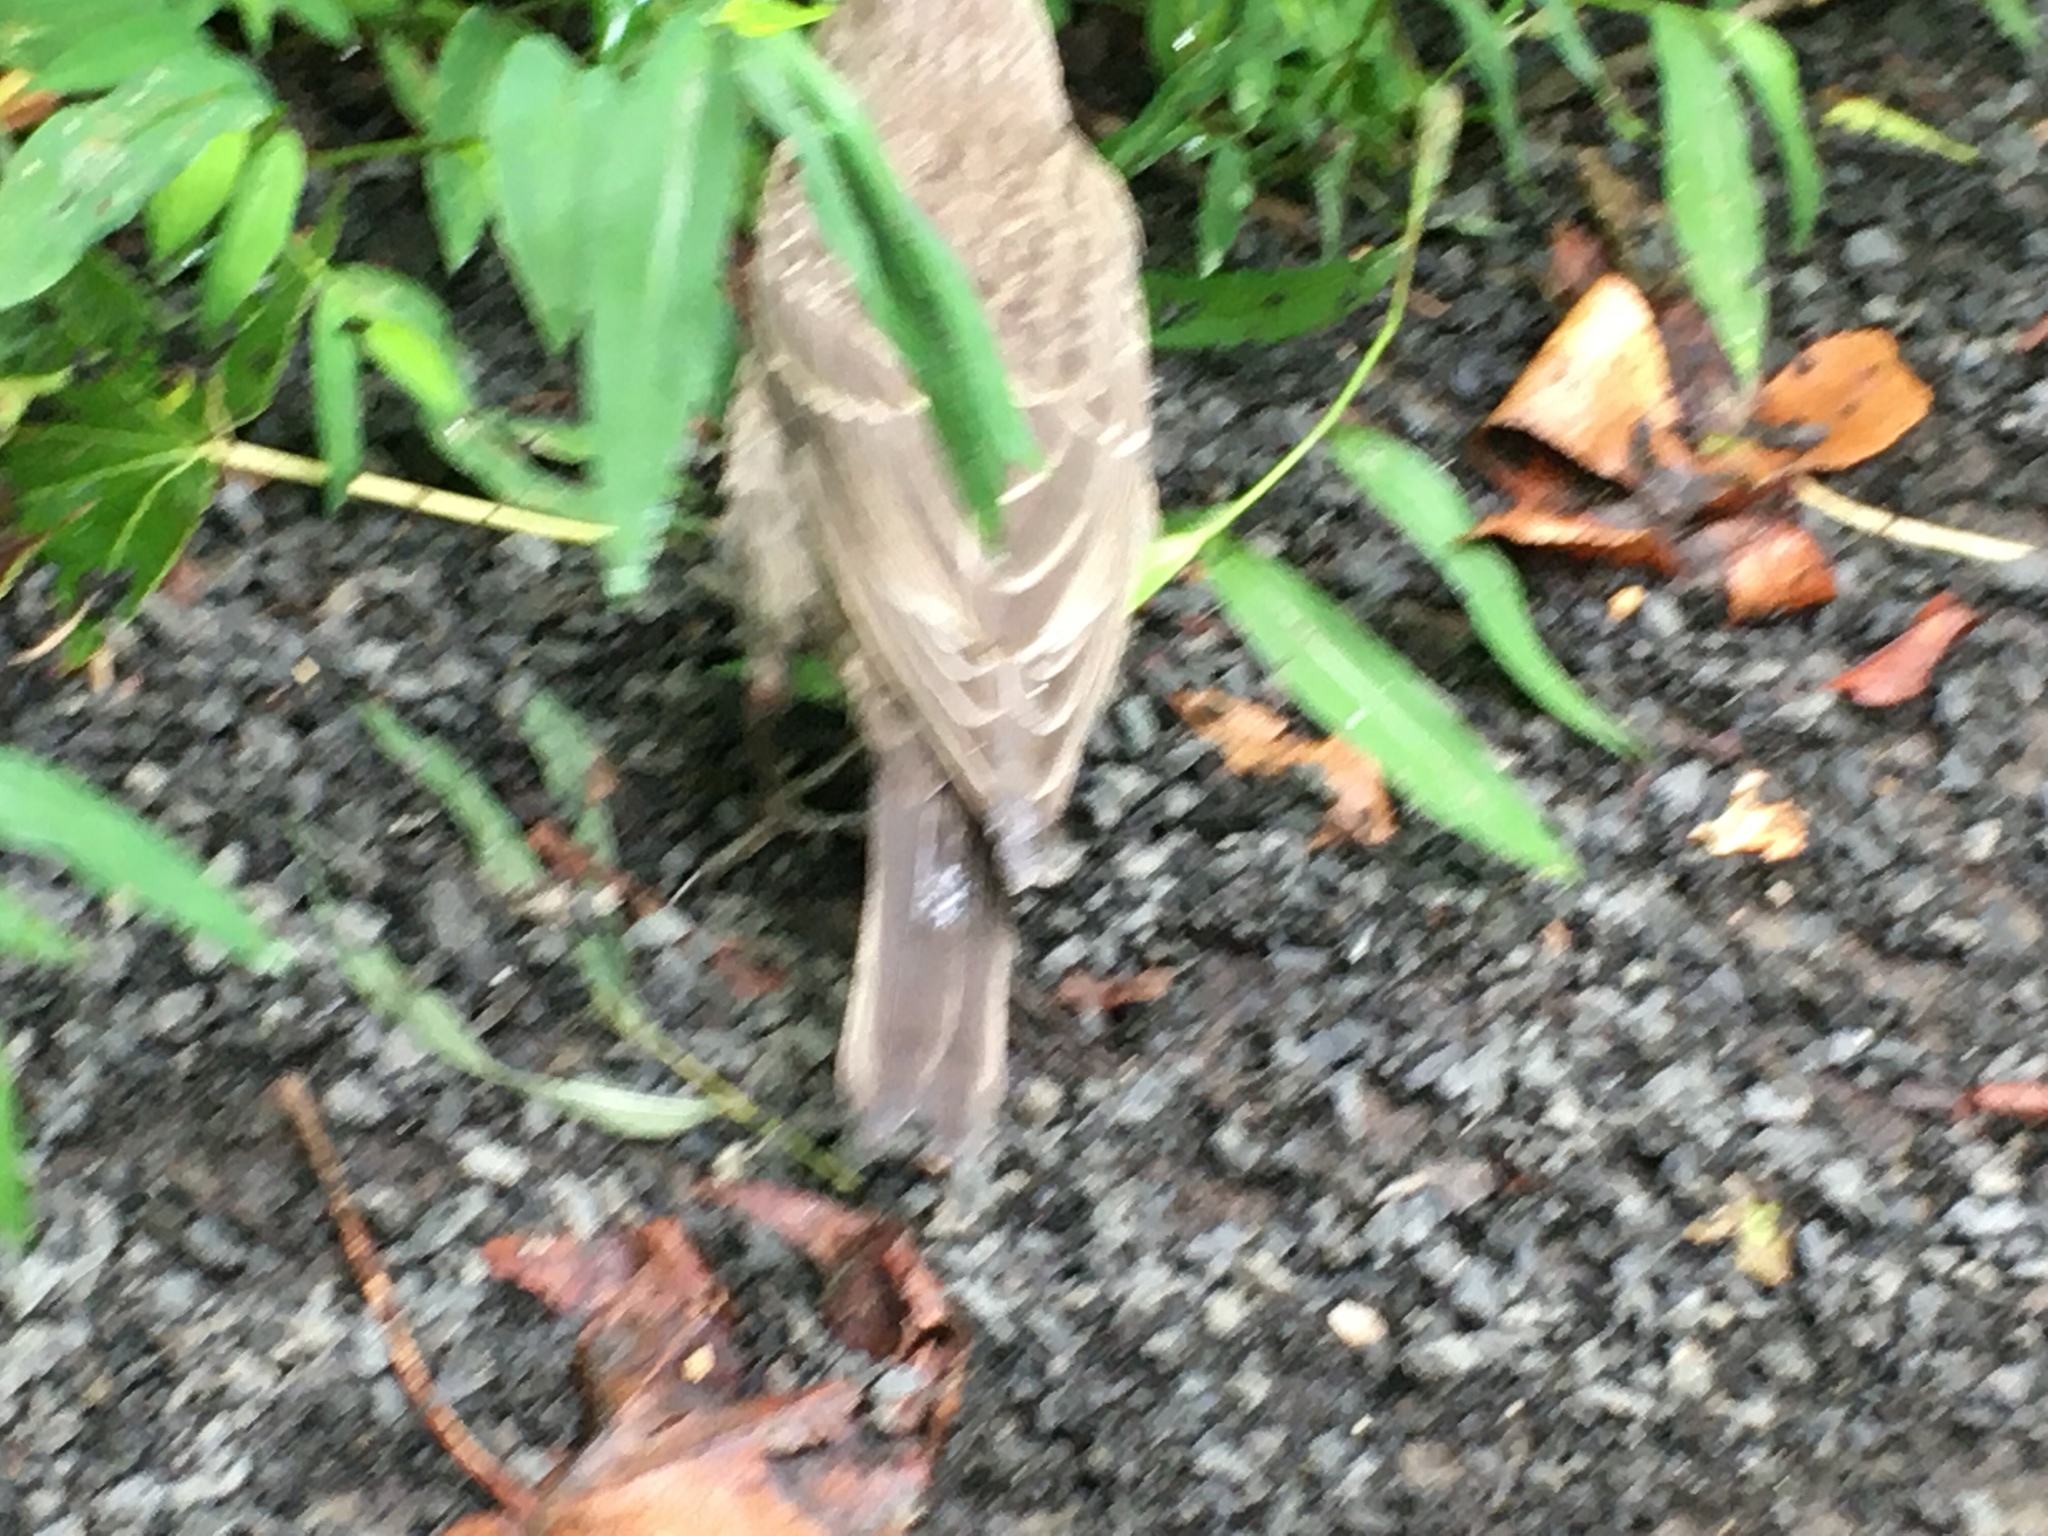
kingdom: Animalia
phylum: Chordata
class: Aves
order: Passeriformes
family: Icteridae
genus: Molothrus
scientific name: Molothrus ater
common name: Brown-headed cowbird
